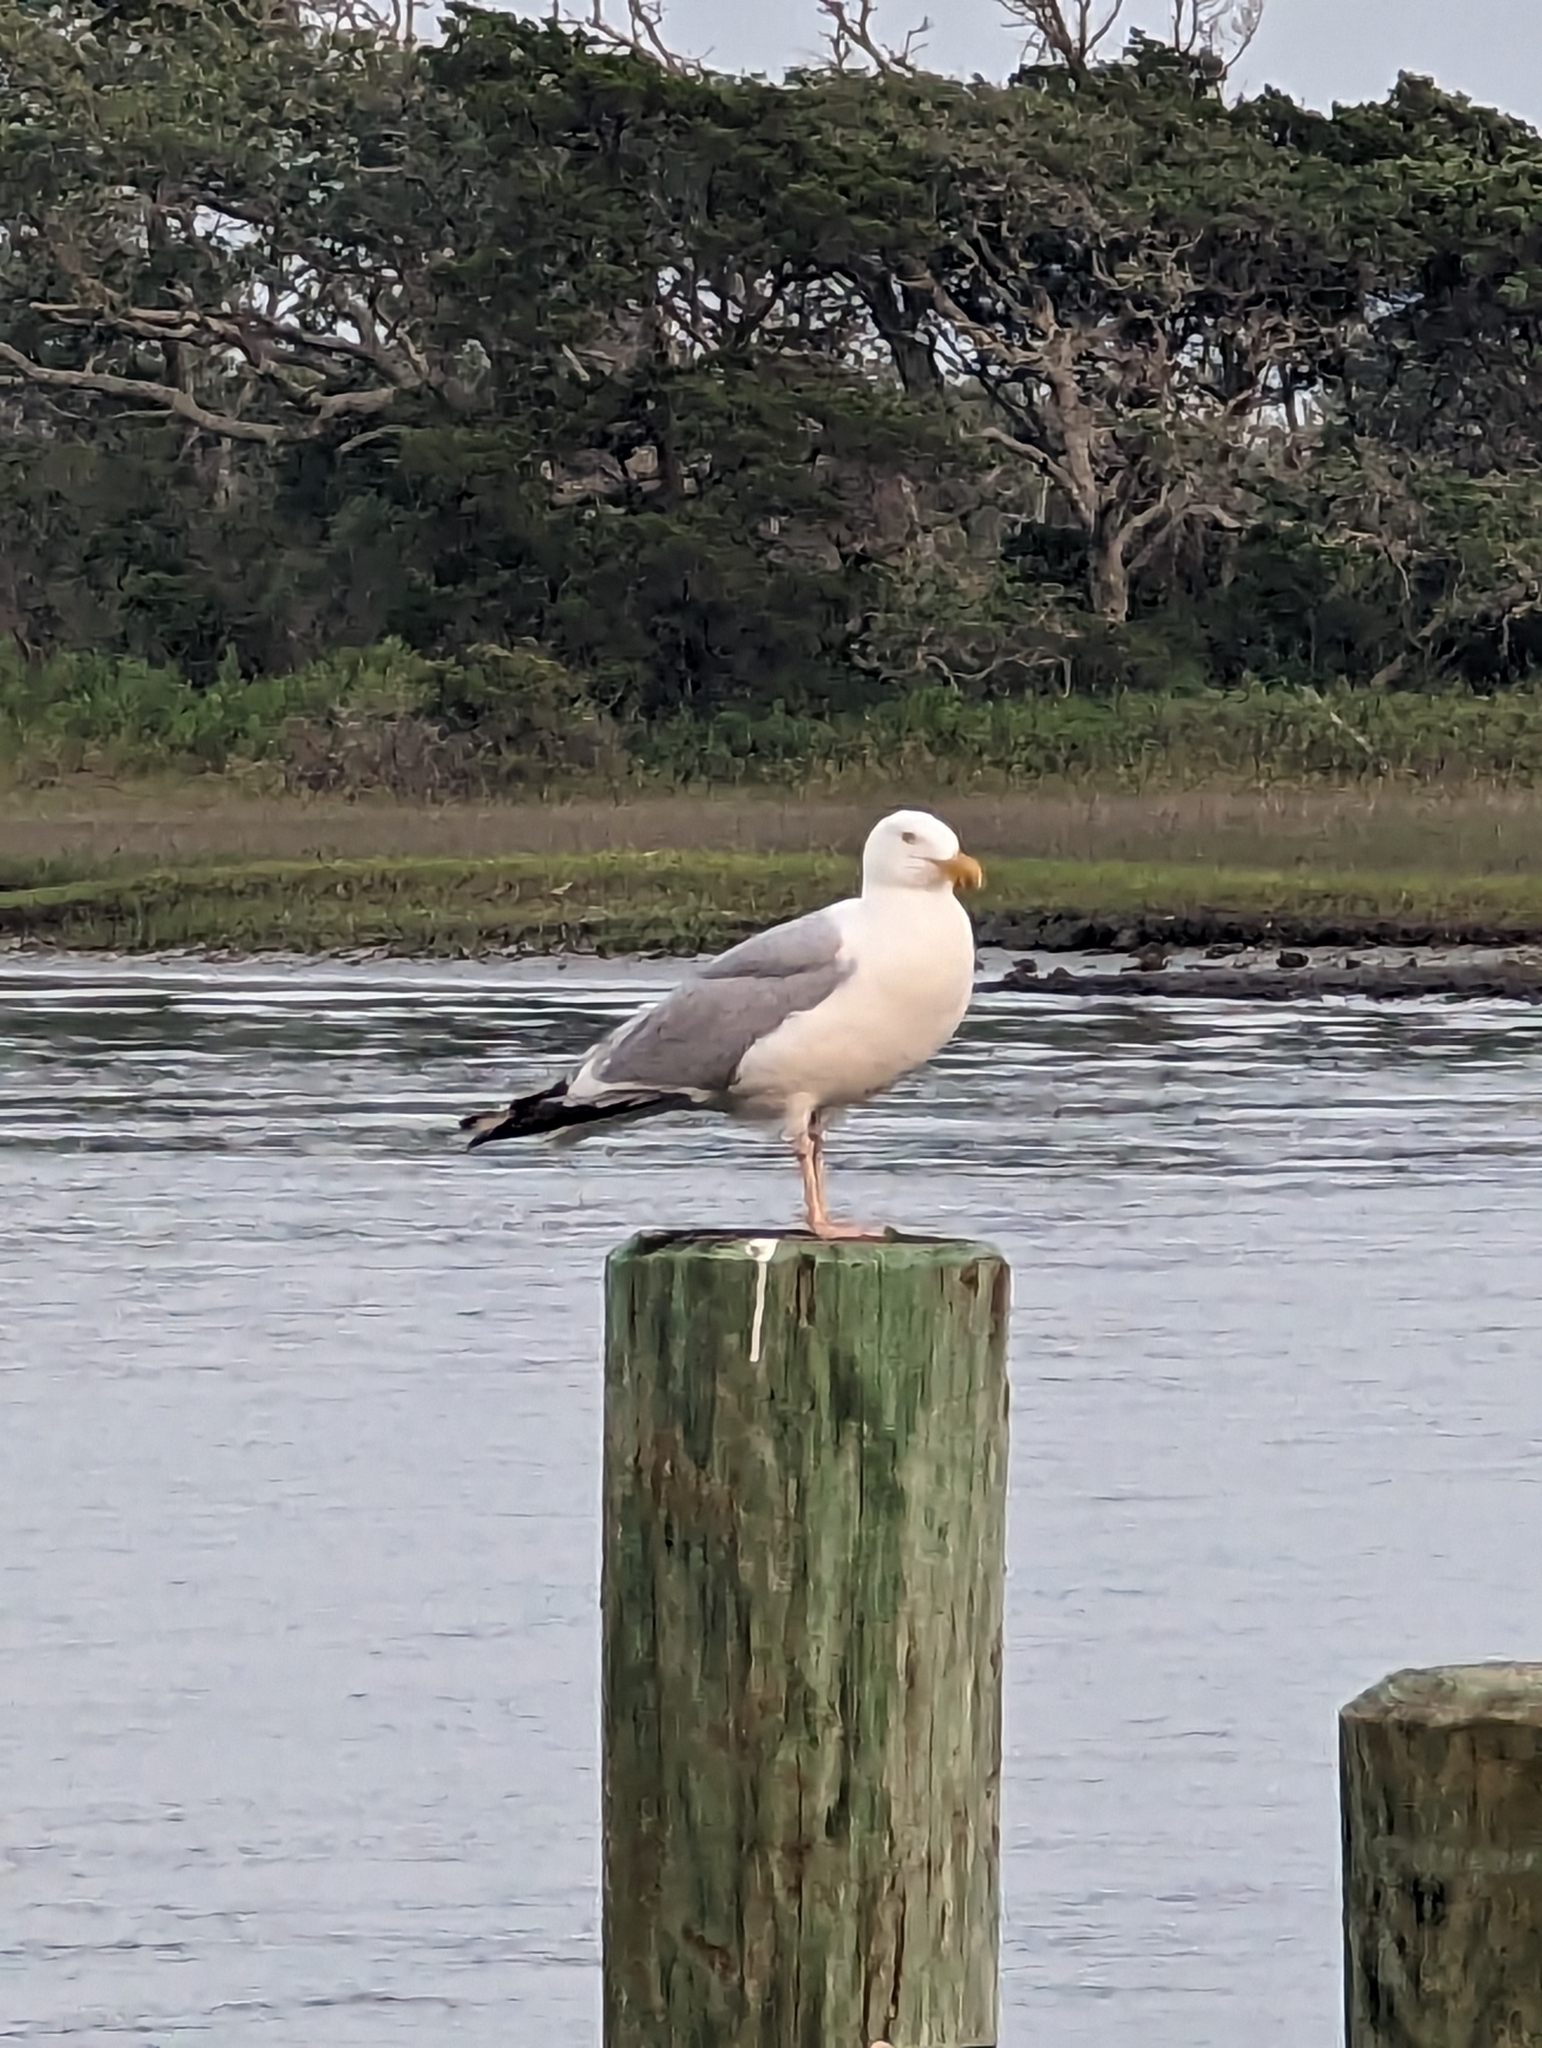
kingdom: Animalia
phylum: Chordata
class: Aves
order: Charadriiformes
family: Laridae
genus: Larus
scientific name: Larus argentatus
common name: Herring gull
